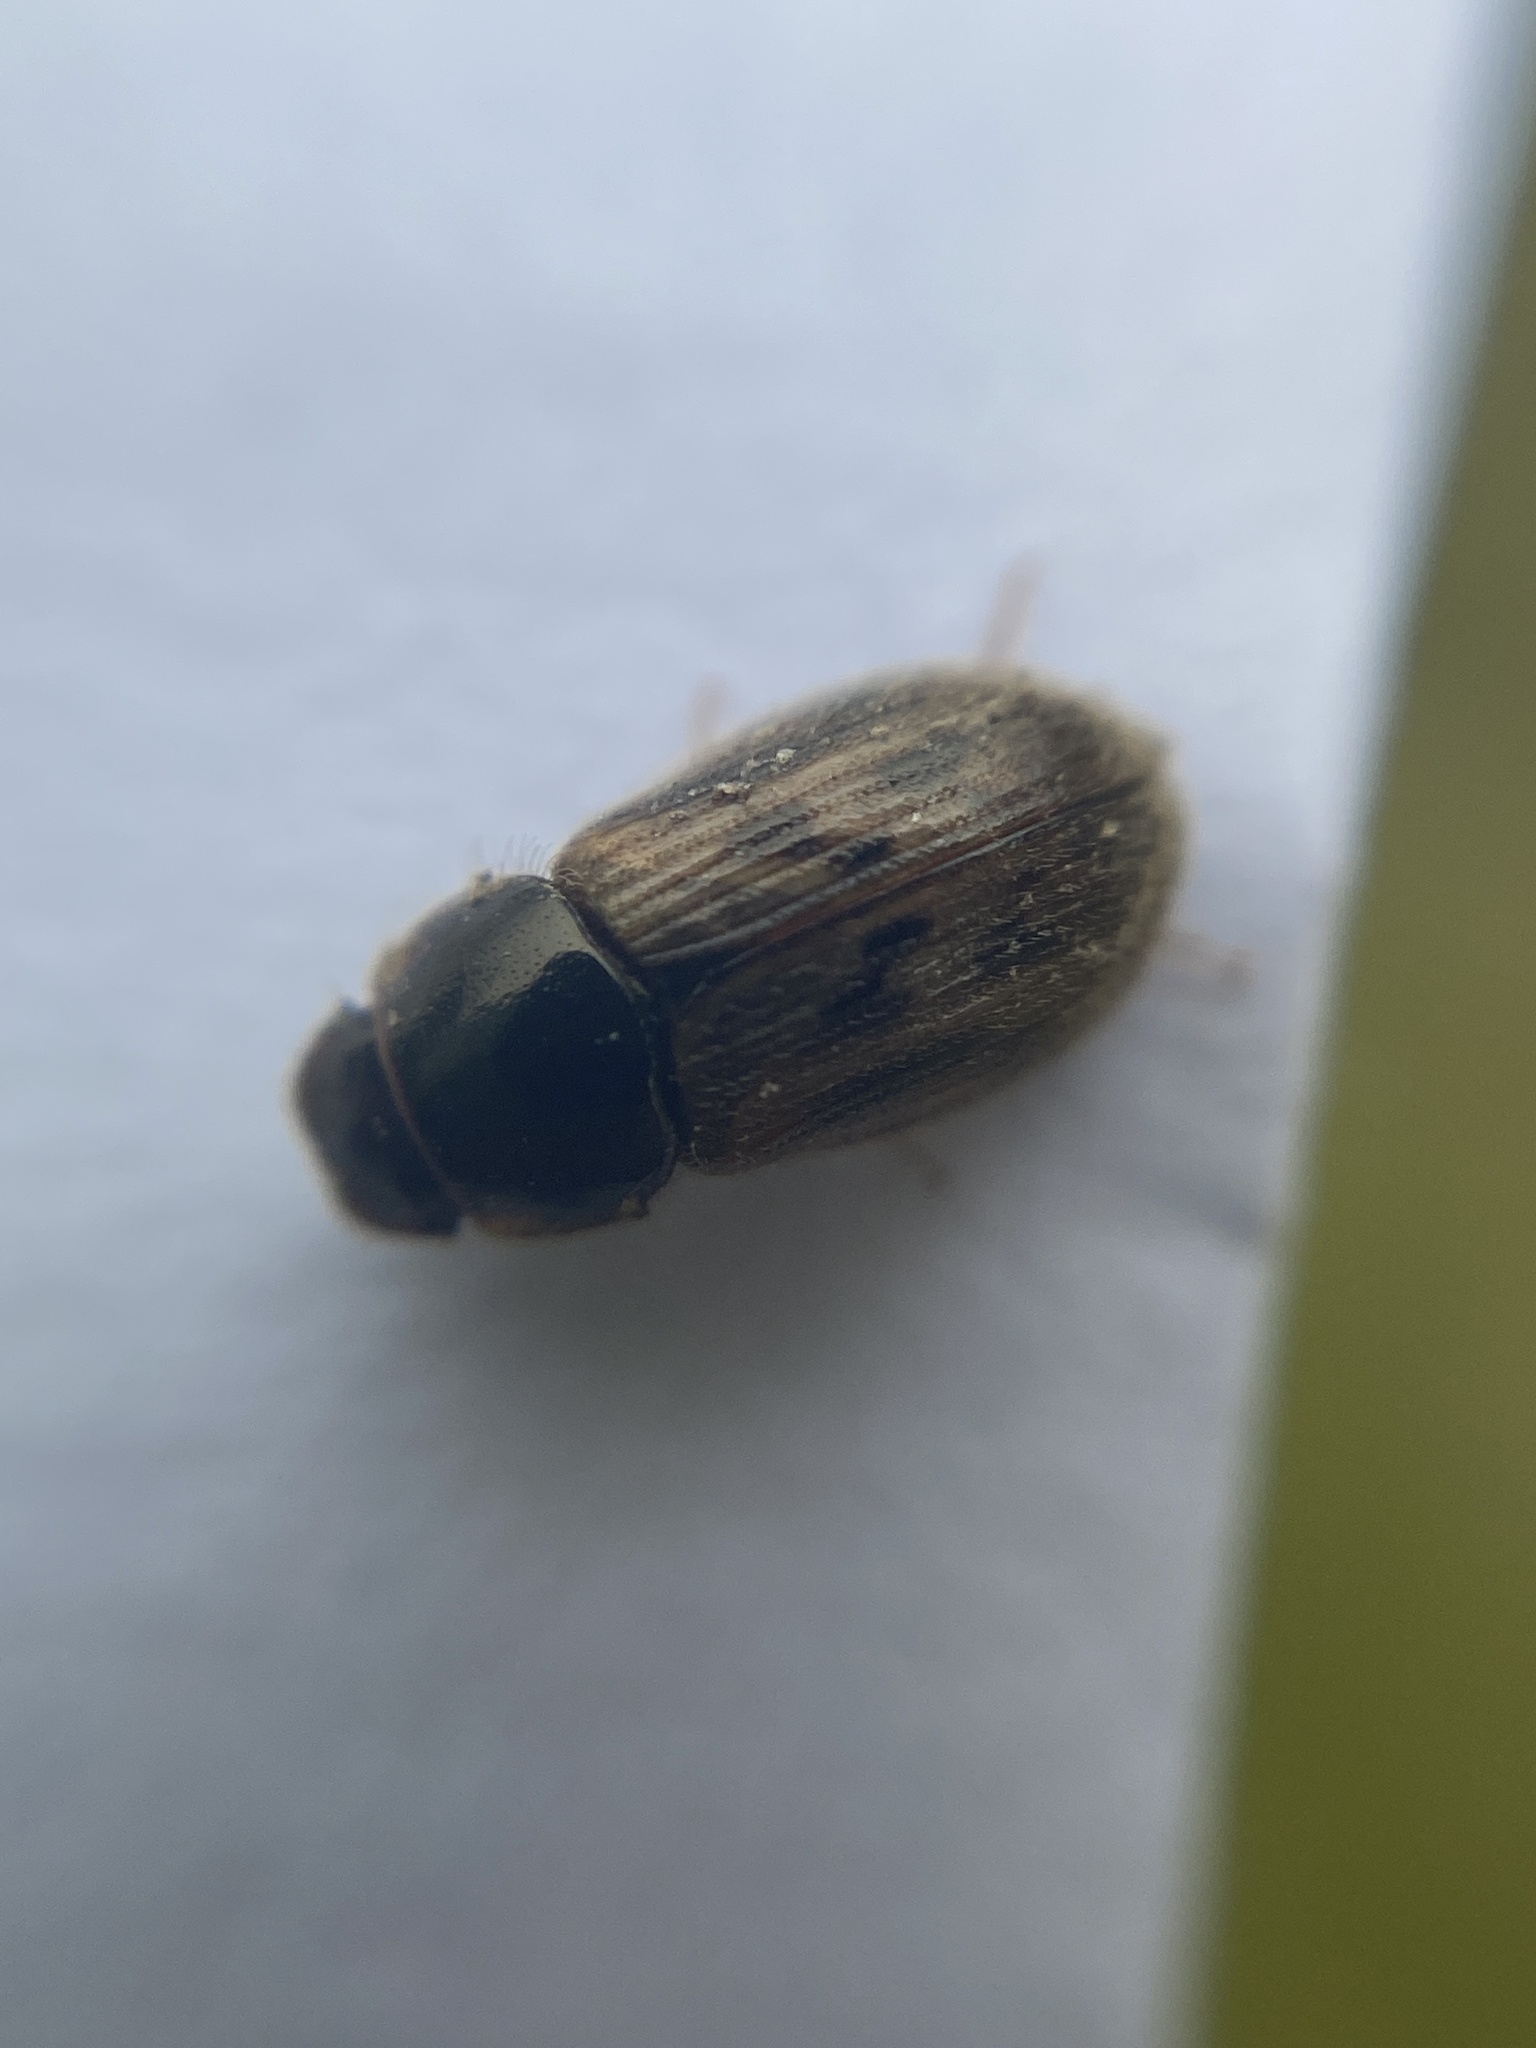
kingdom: Animalia
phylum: Arthropoda
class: Insecta
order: Coleoptera
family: Scarabaeidae
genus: Nimbus
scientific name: Nimbus contaminatus
